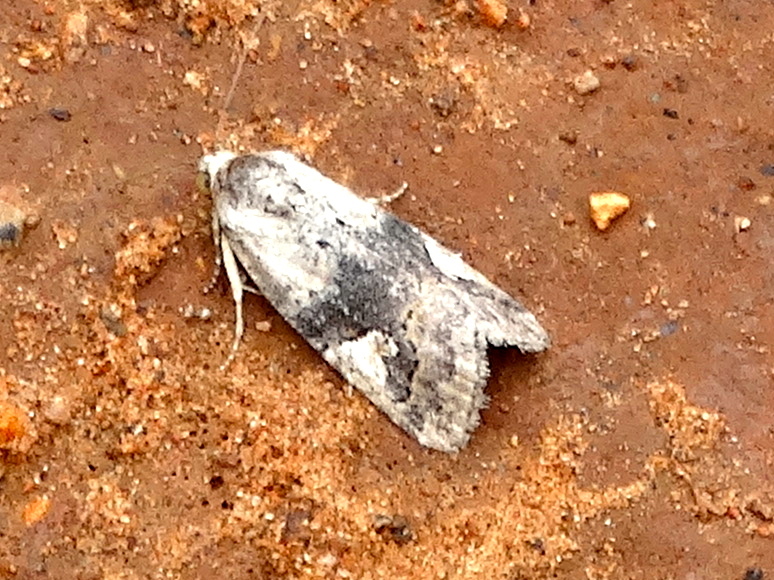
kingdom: Animalia
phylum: Arthropoda
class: Insecta
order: Lepidoptera
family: Noctuidae
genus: Metaponpneumata
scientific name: Metaponpneumata rogenhoferi
